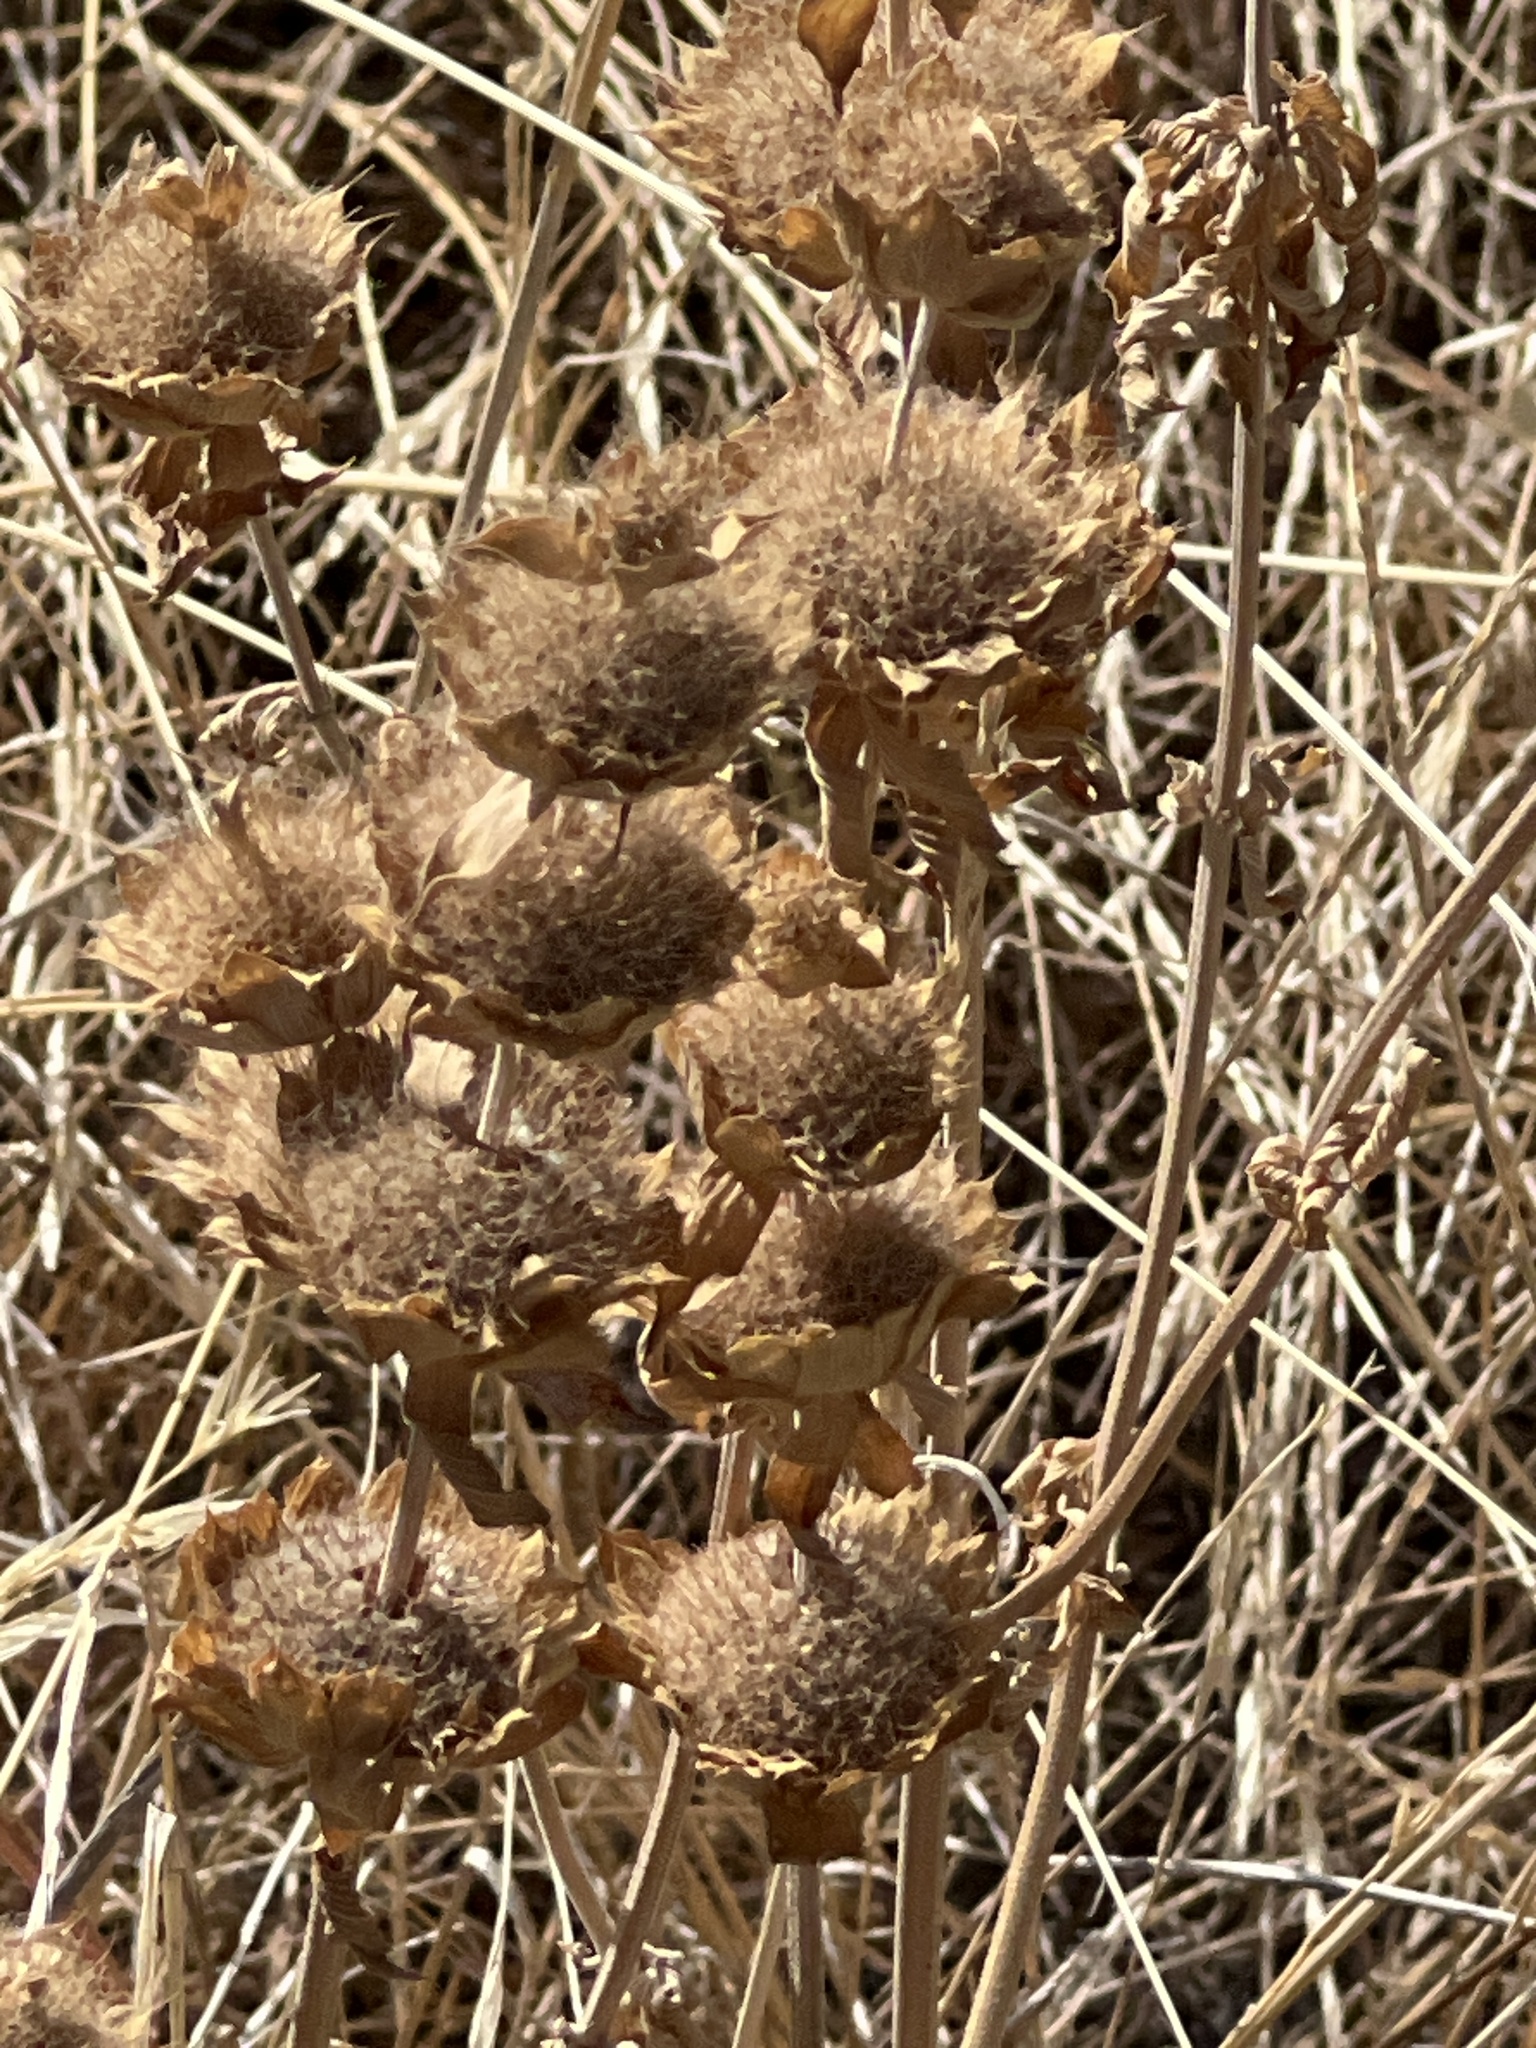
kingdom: Plantae
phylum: Tracheophyta
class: Magnoliopsida
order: Lamiales
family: Lamiaceae
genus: Monarda
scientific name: Monarda citriodora
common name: Lemon beebalm
